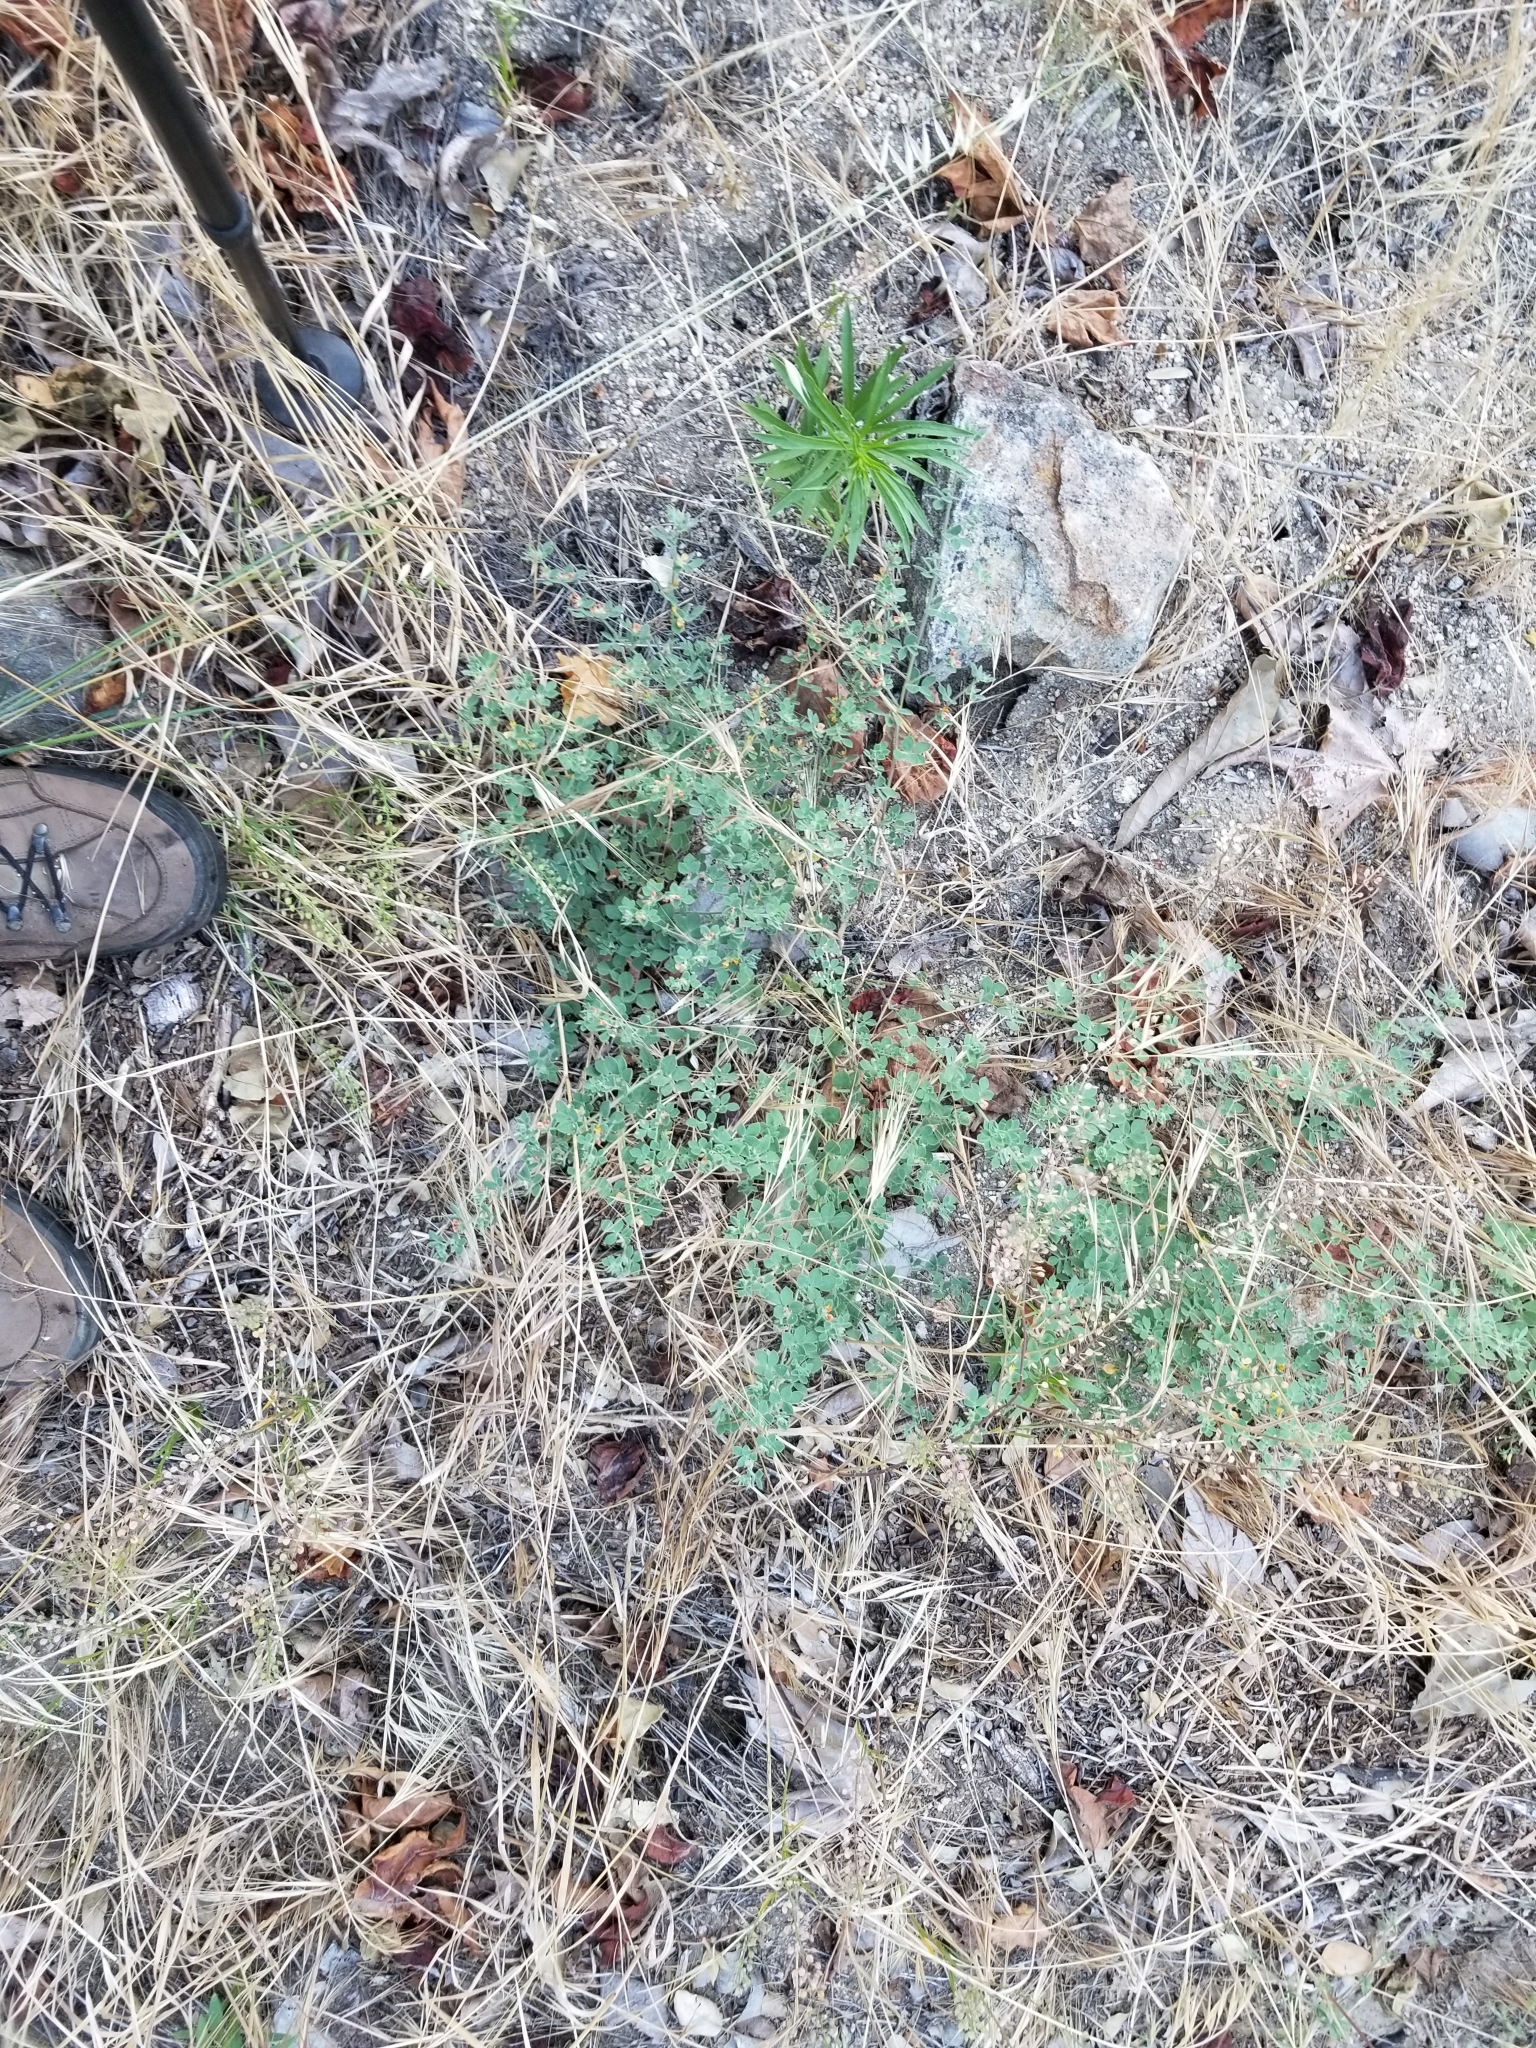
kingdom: Plantae
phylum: Tracheophyta
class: Magnoliopsida
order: Fabales
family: Fabaceae
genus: Acmispon
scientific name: Acmispon tomentosus
